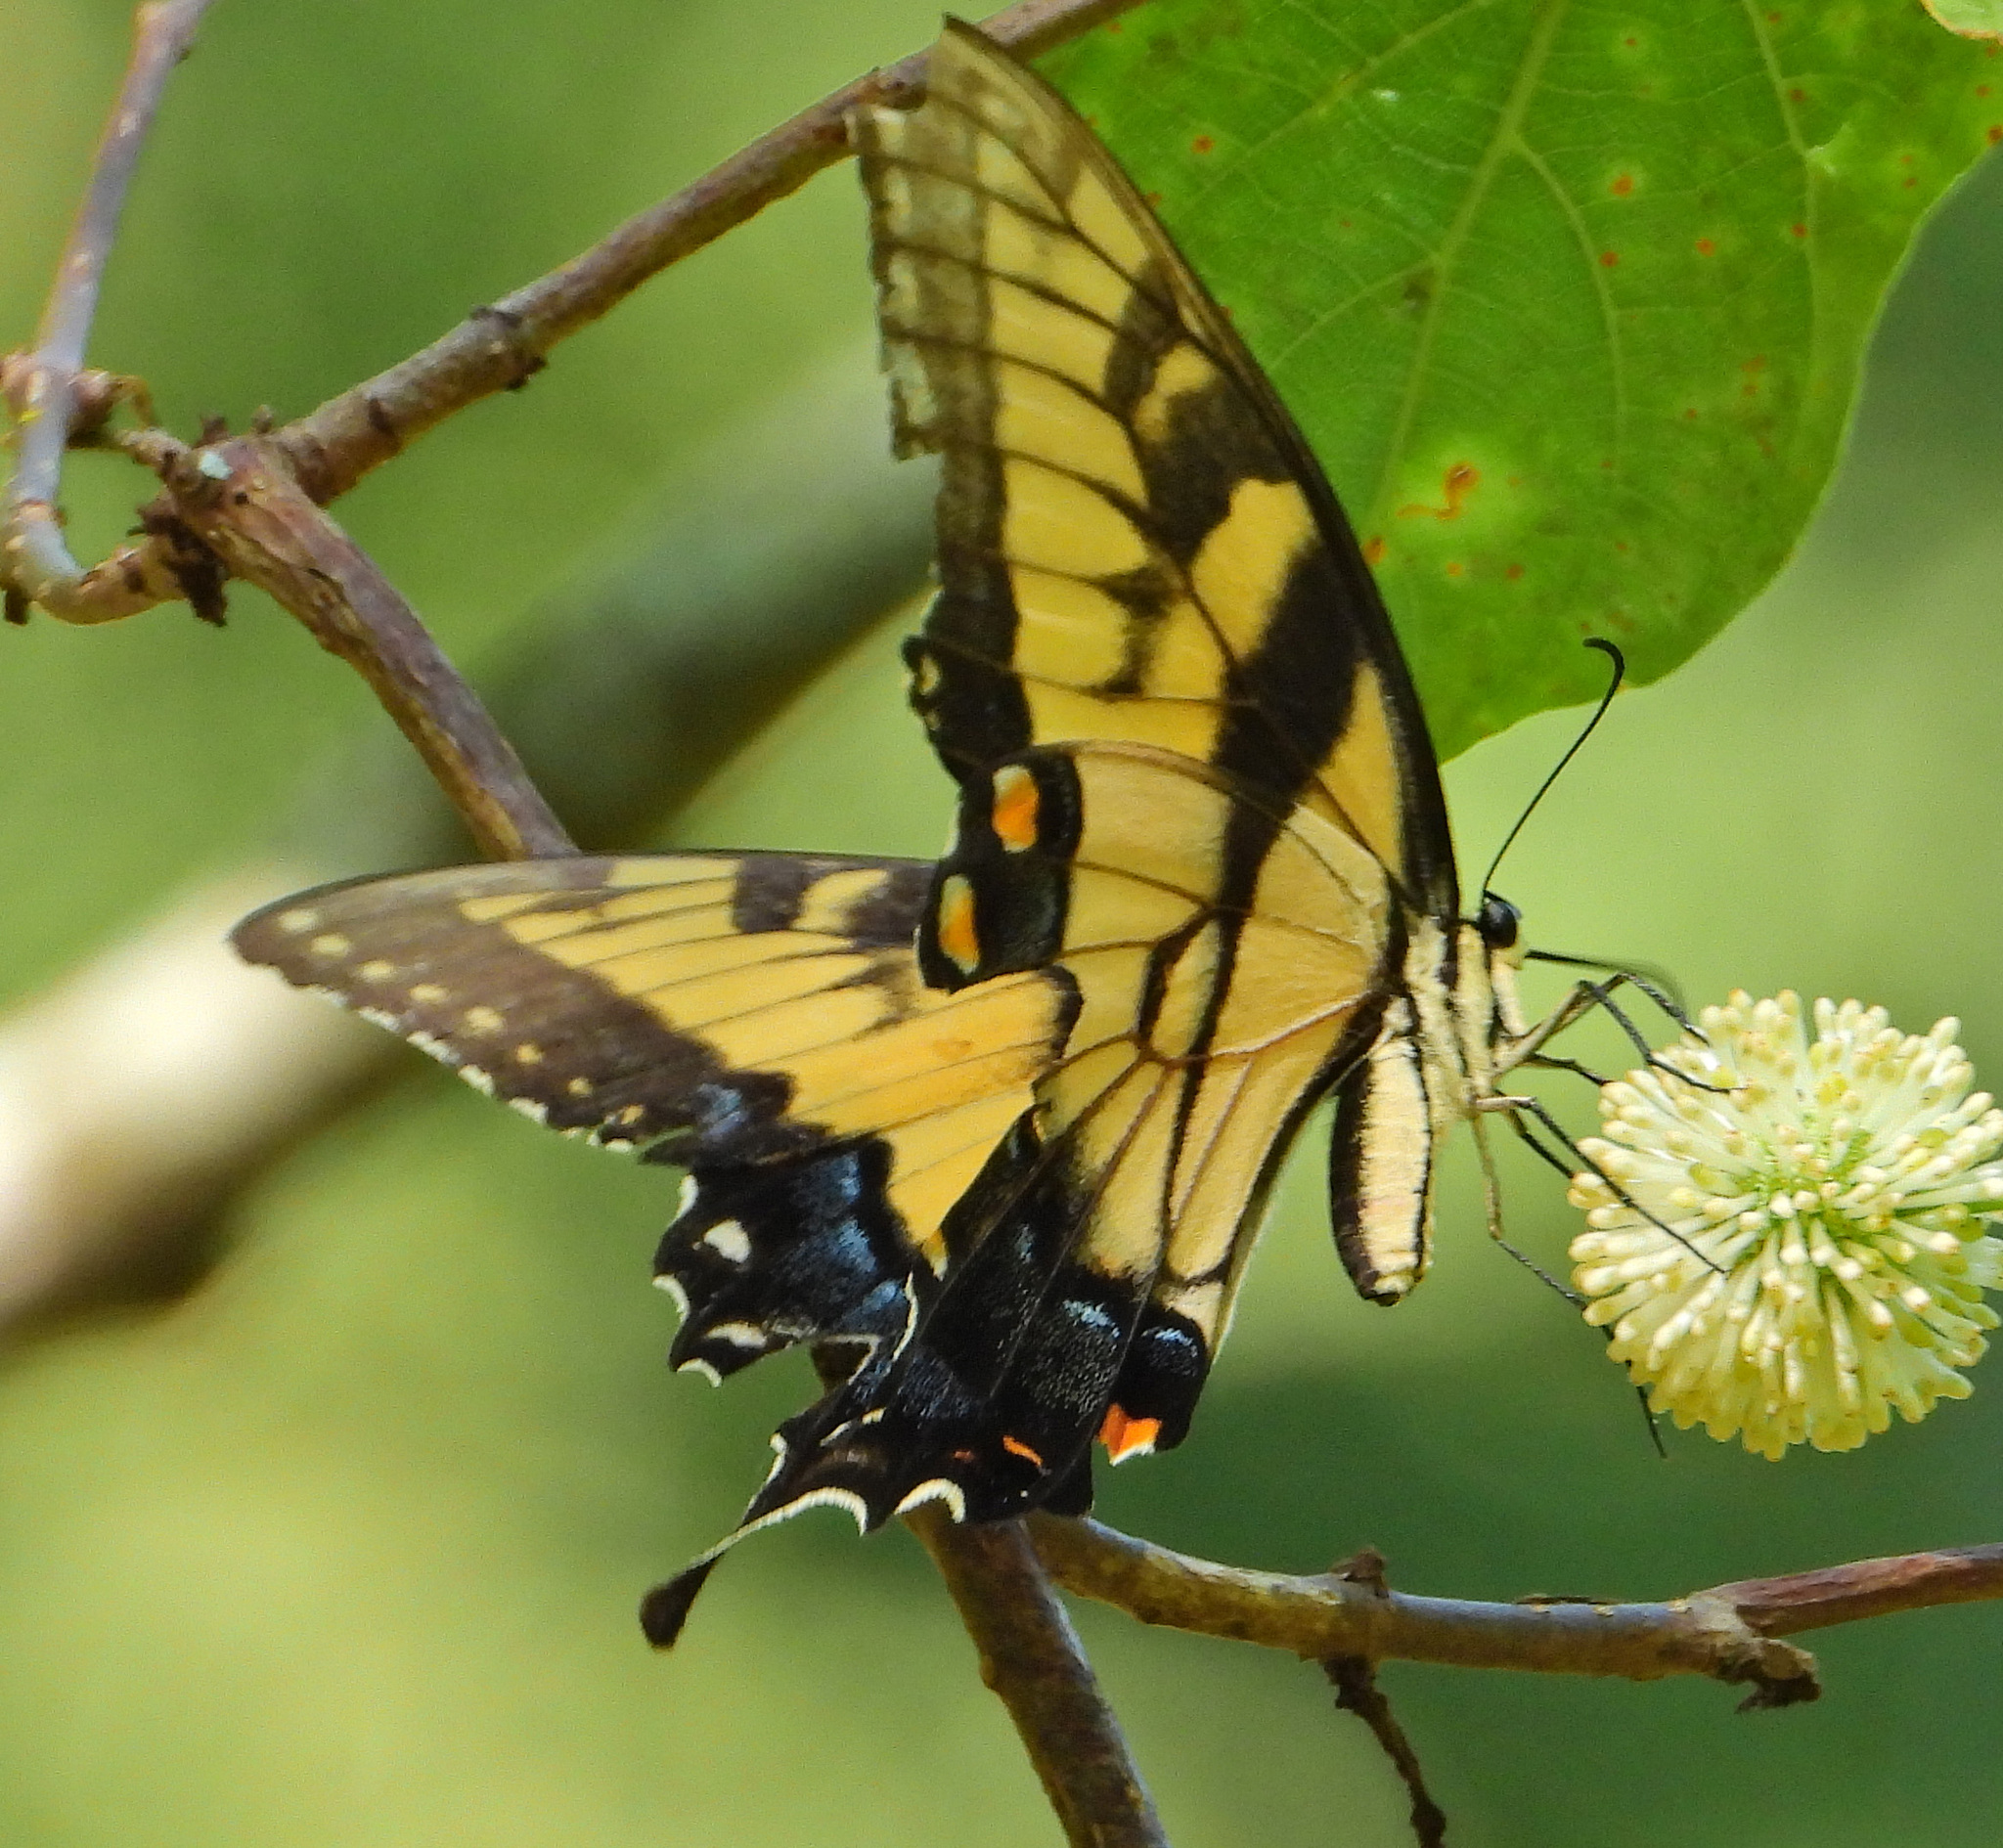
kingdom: Animalia
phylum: Arthropoda
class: Insecta
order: Lepidoptera
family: Papilionidae
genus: Papilio
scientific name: Papilio glaucus
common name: Tiger swallowtail
